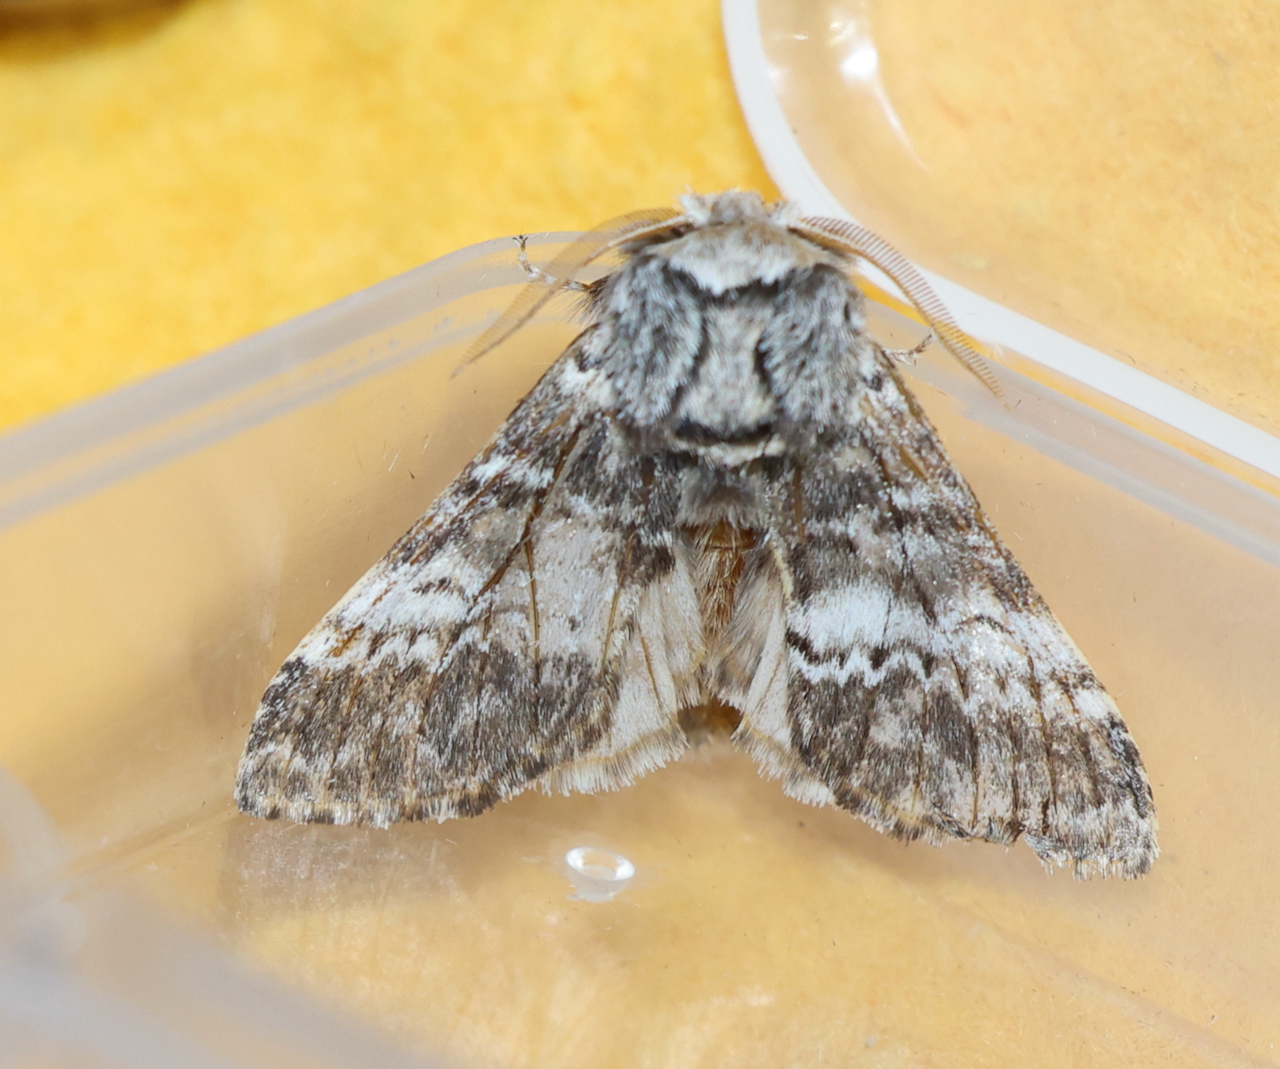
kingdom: Animalia
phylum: Arthropoda
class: Insecta
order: Lepidoptera
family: Notodontidae
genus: Drymonia
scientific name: Drymonia ruficornis
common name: Lunar marbled brown
